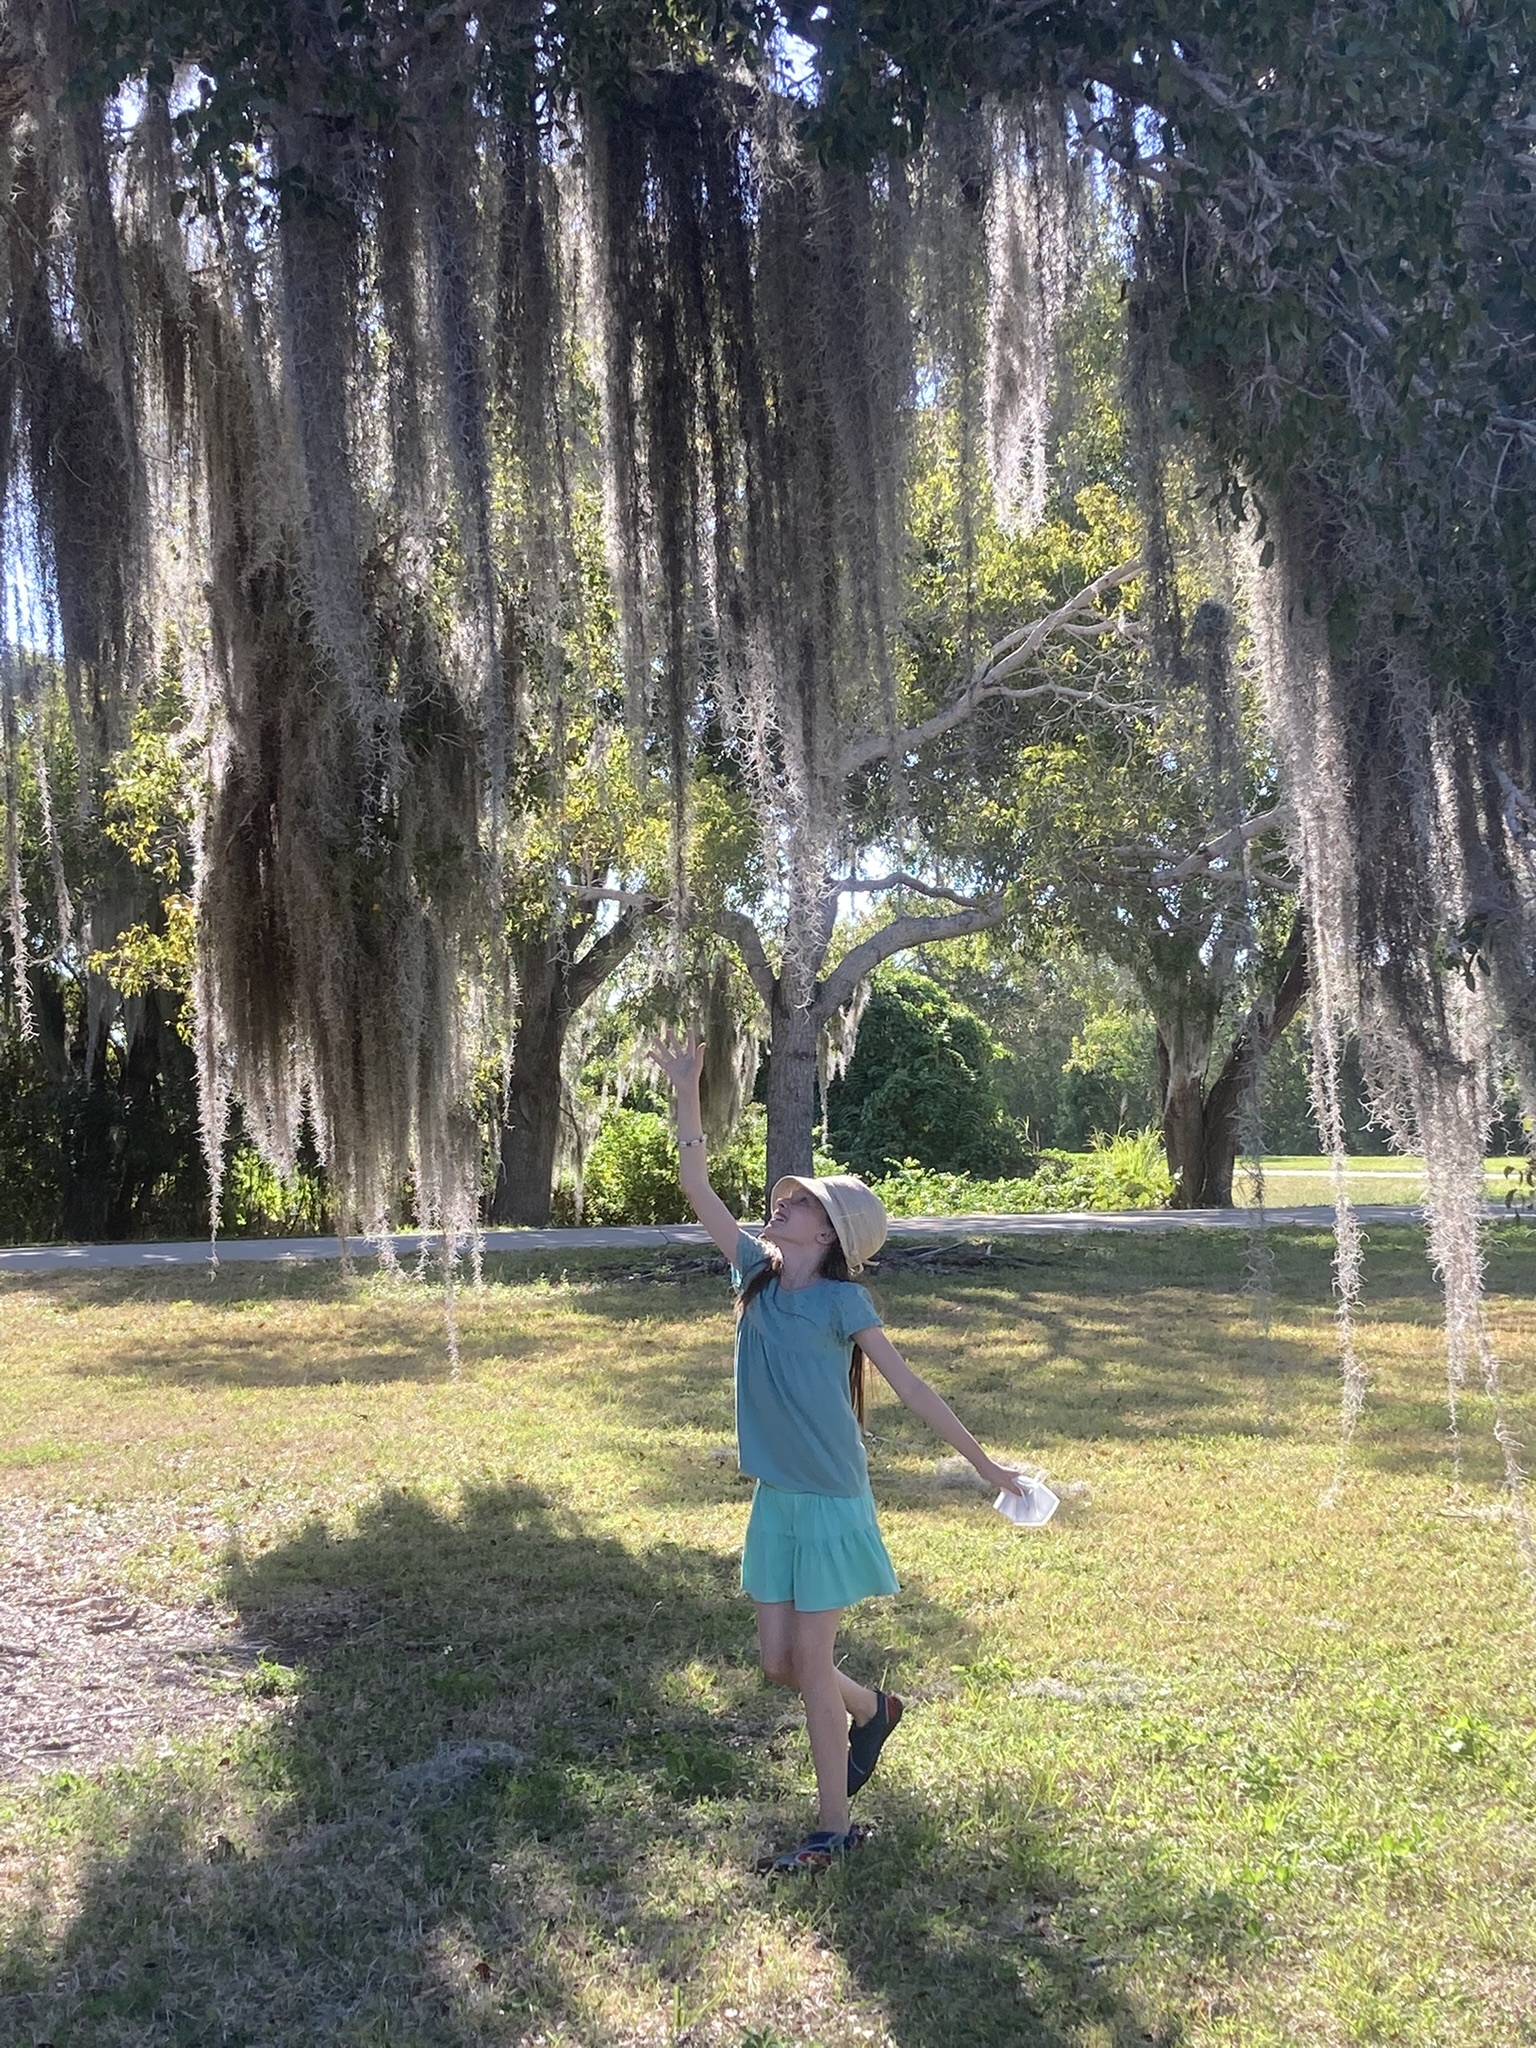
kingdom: Plantae
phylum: Tracheophyta
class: Liliopsida
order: Poales
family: Bromeliaceae
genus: Tillandsia
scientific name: Tillandsia usneoides
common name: Spanish moss
